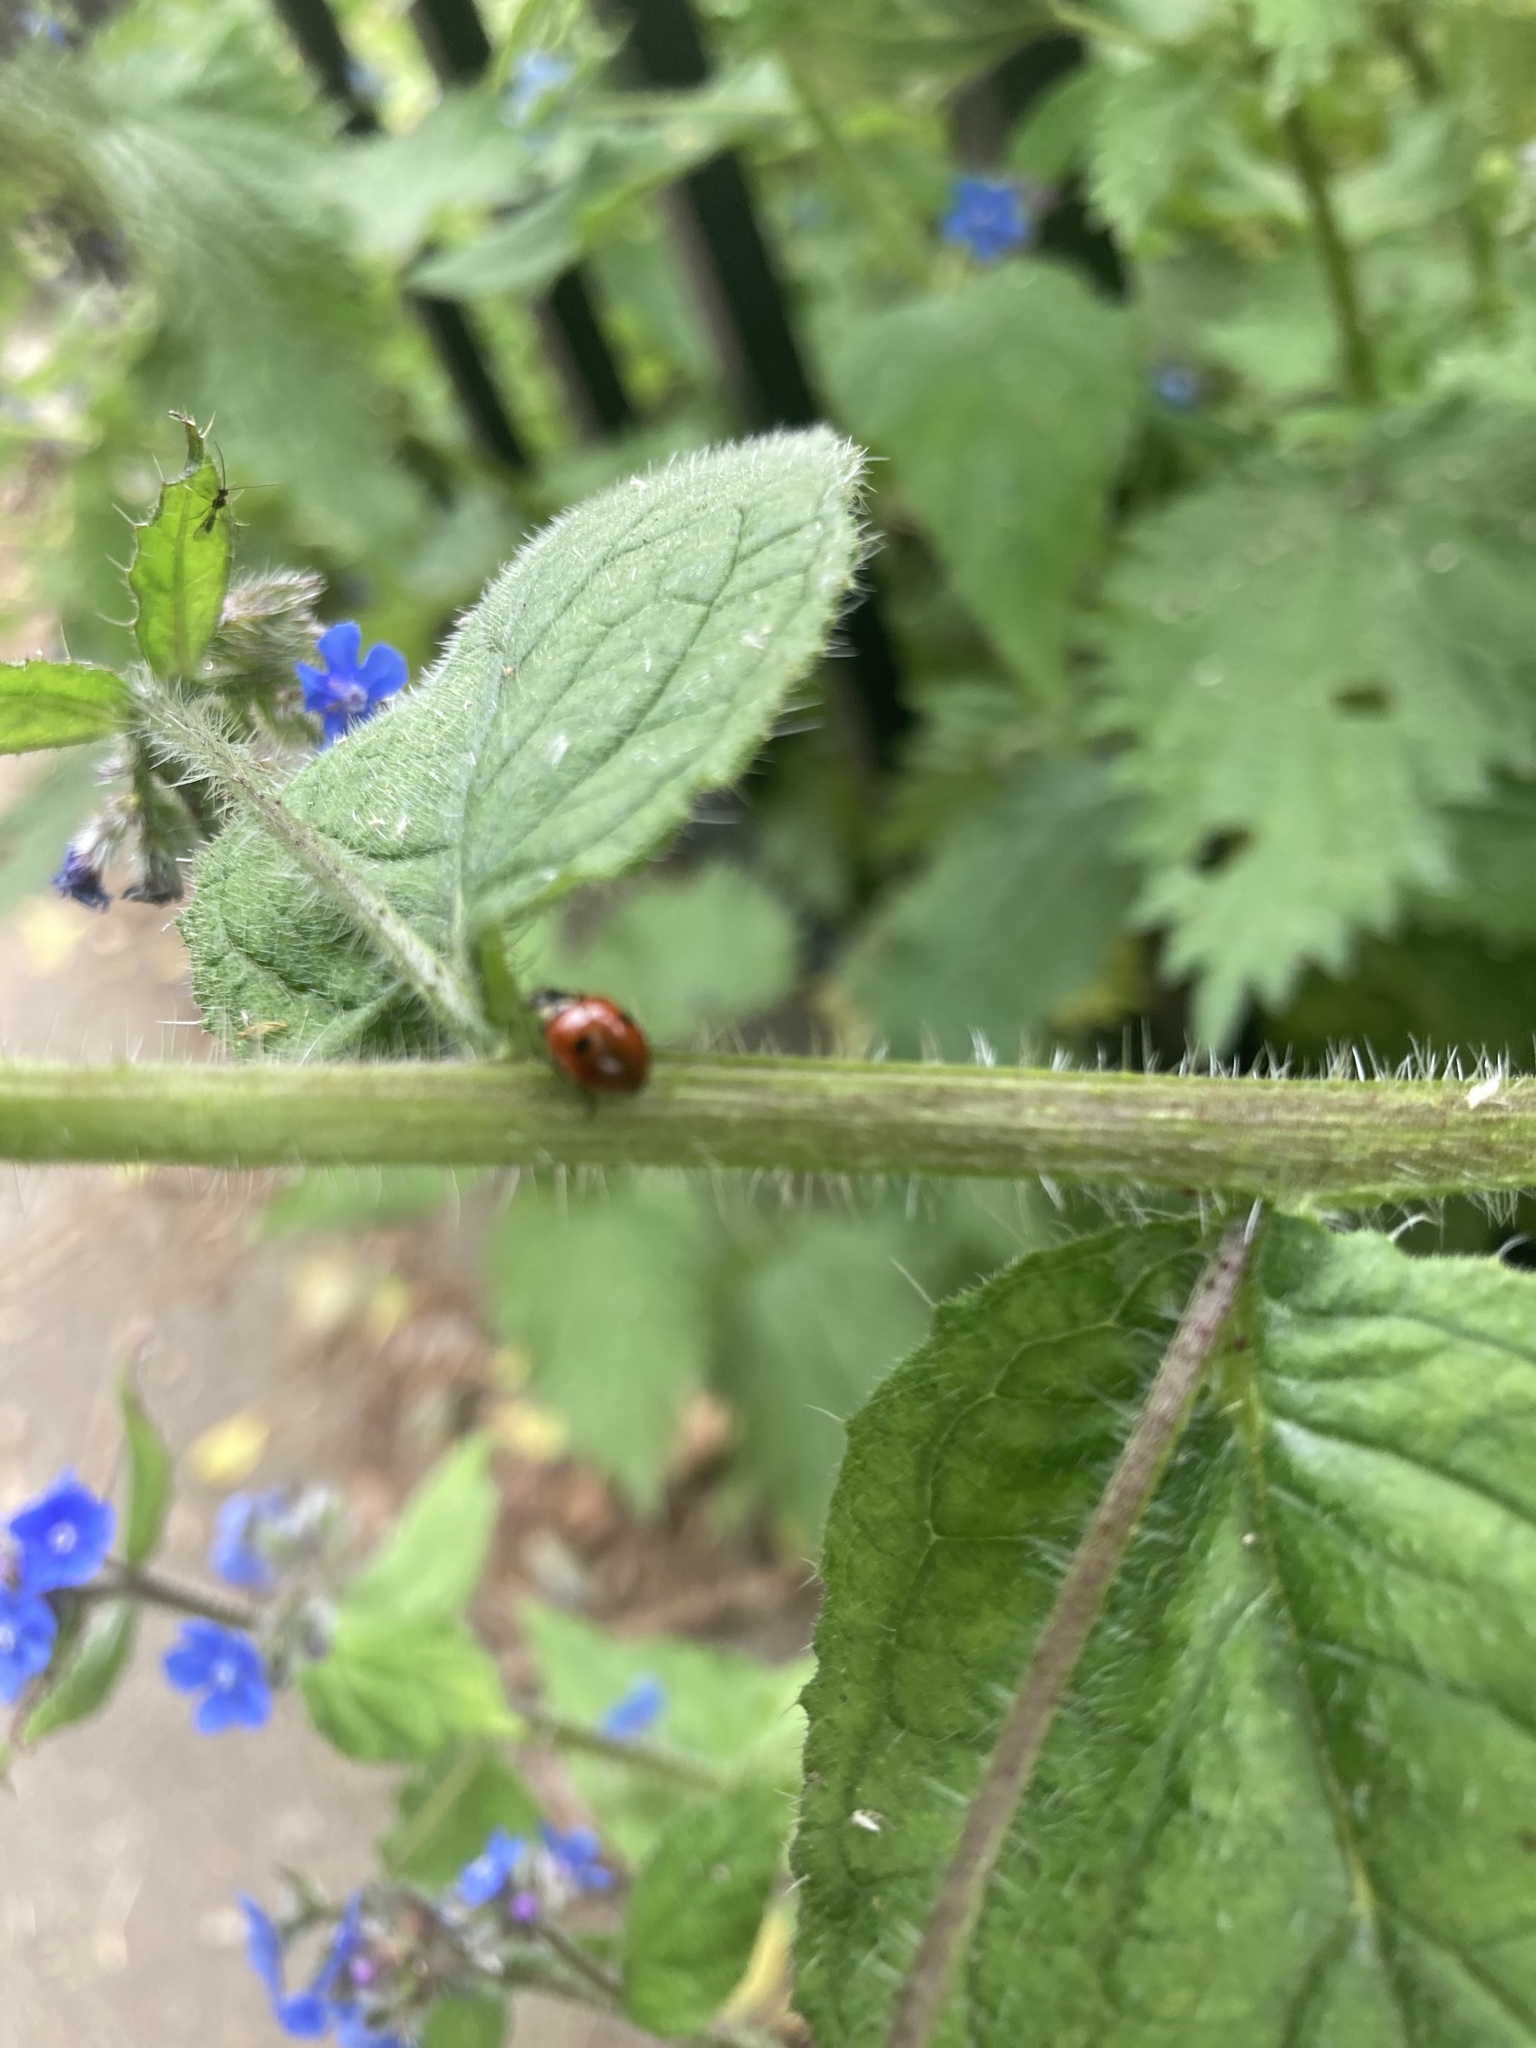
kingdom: Animalia
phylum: Arthropoda
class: Insecta
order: Coleoptera
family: Coccinellidae
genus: Adalia
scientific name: Adalia bipunctata
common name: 2-spot ladybird
